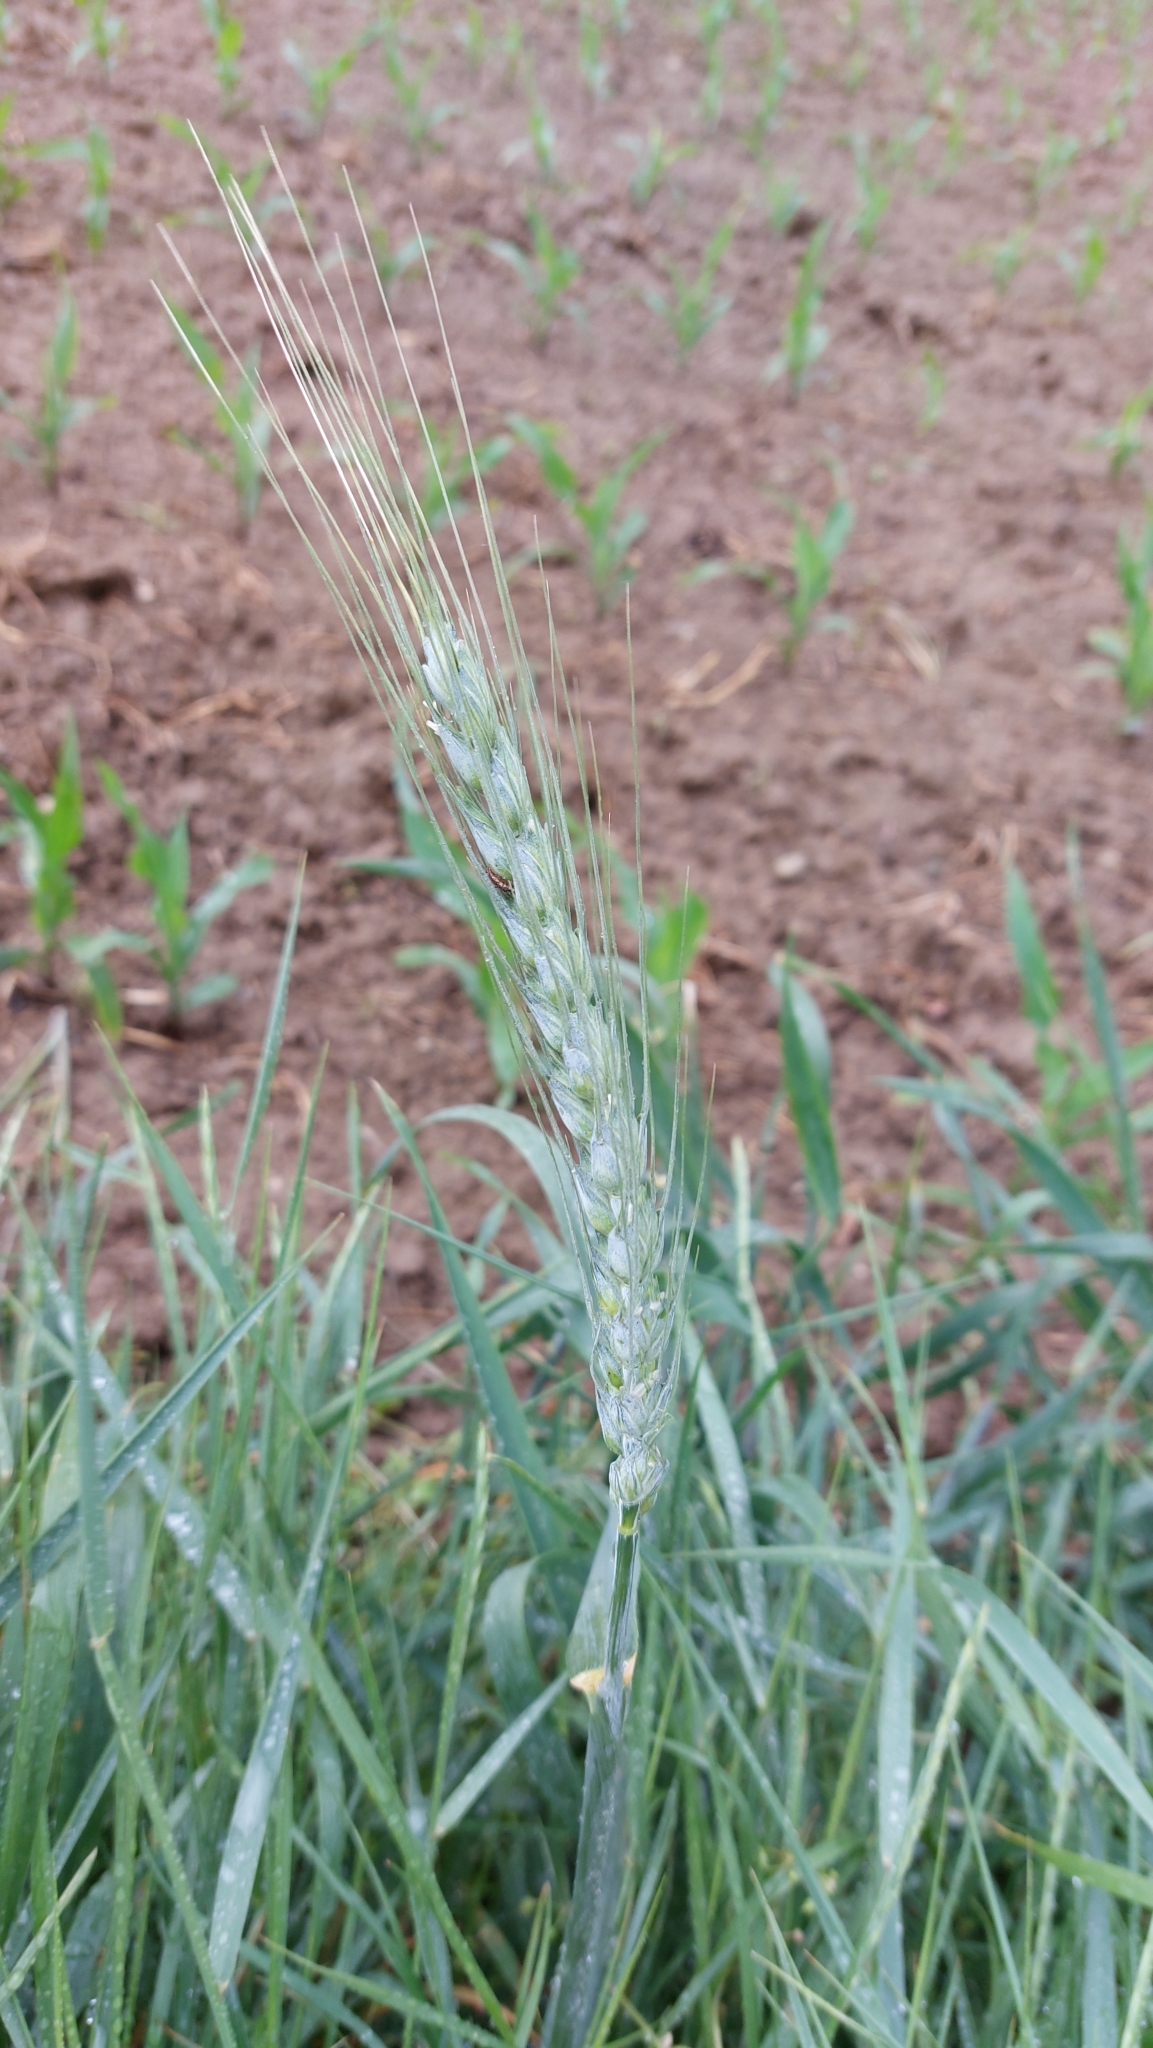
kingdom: Plantae
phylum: Tracheophyta
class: Liliopsida
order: Poales
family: Poaceae
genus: Triticum
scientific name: Triticum aestivum
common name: Common wheat
